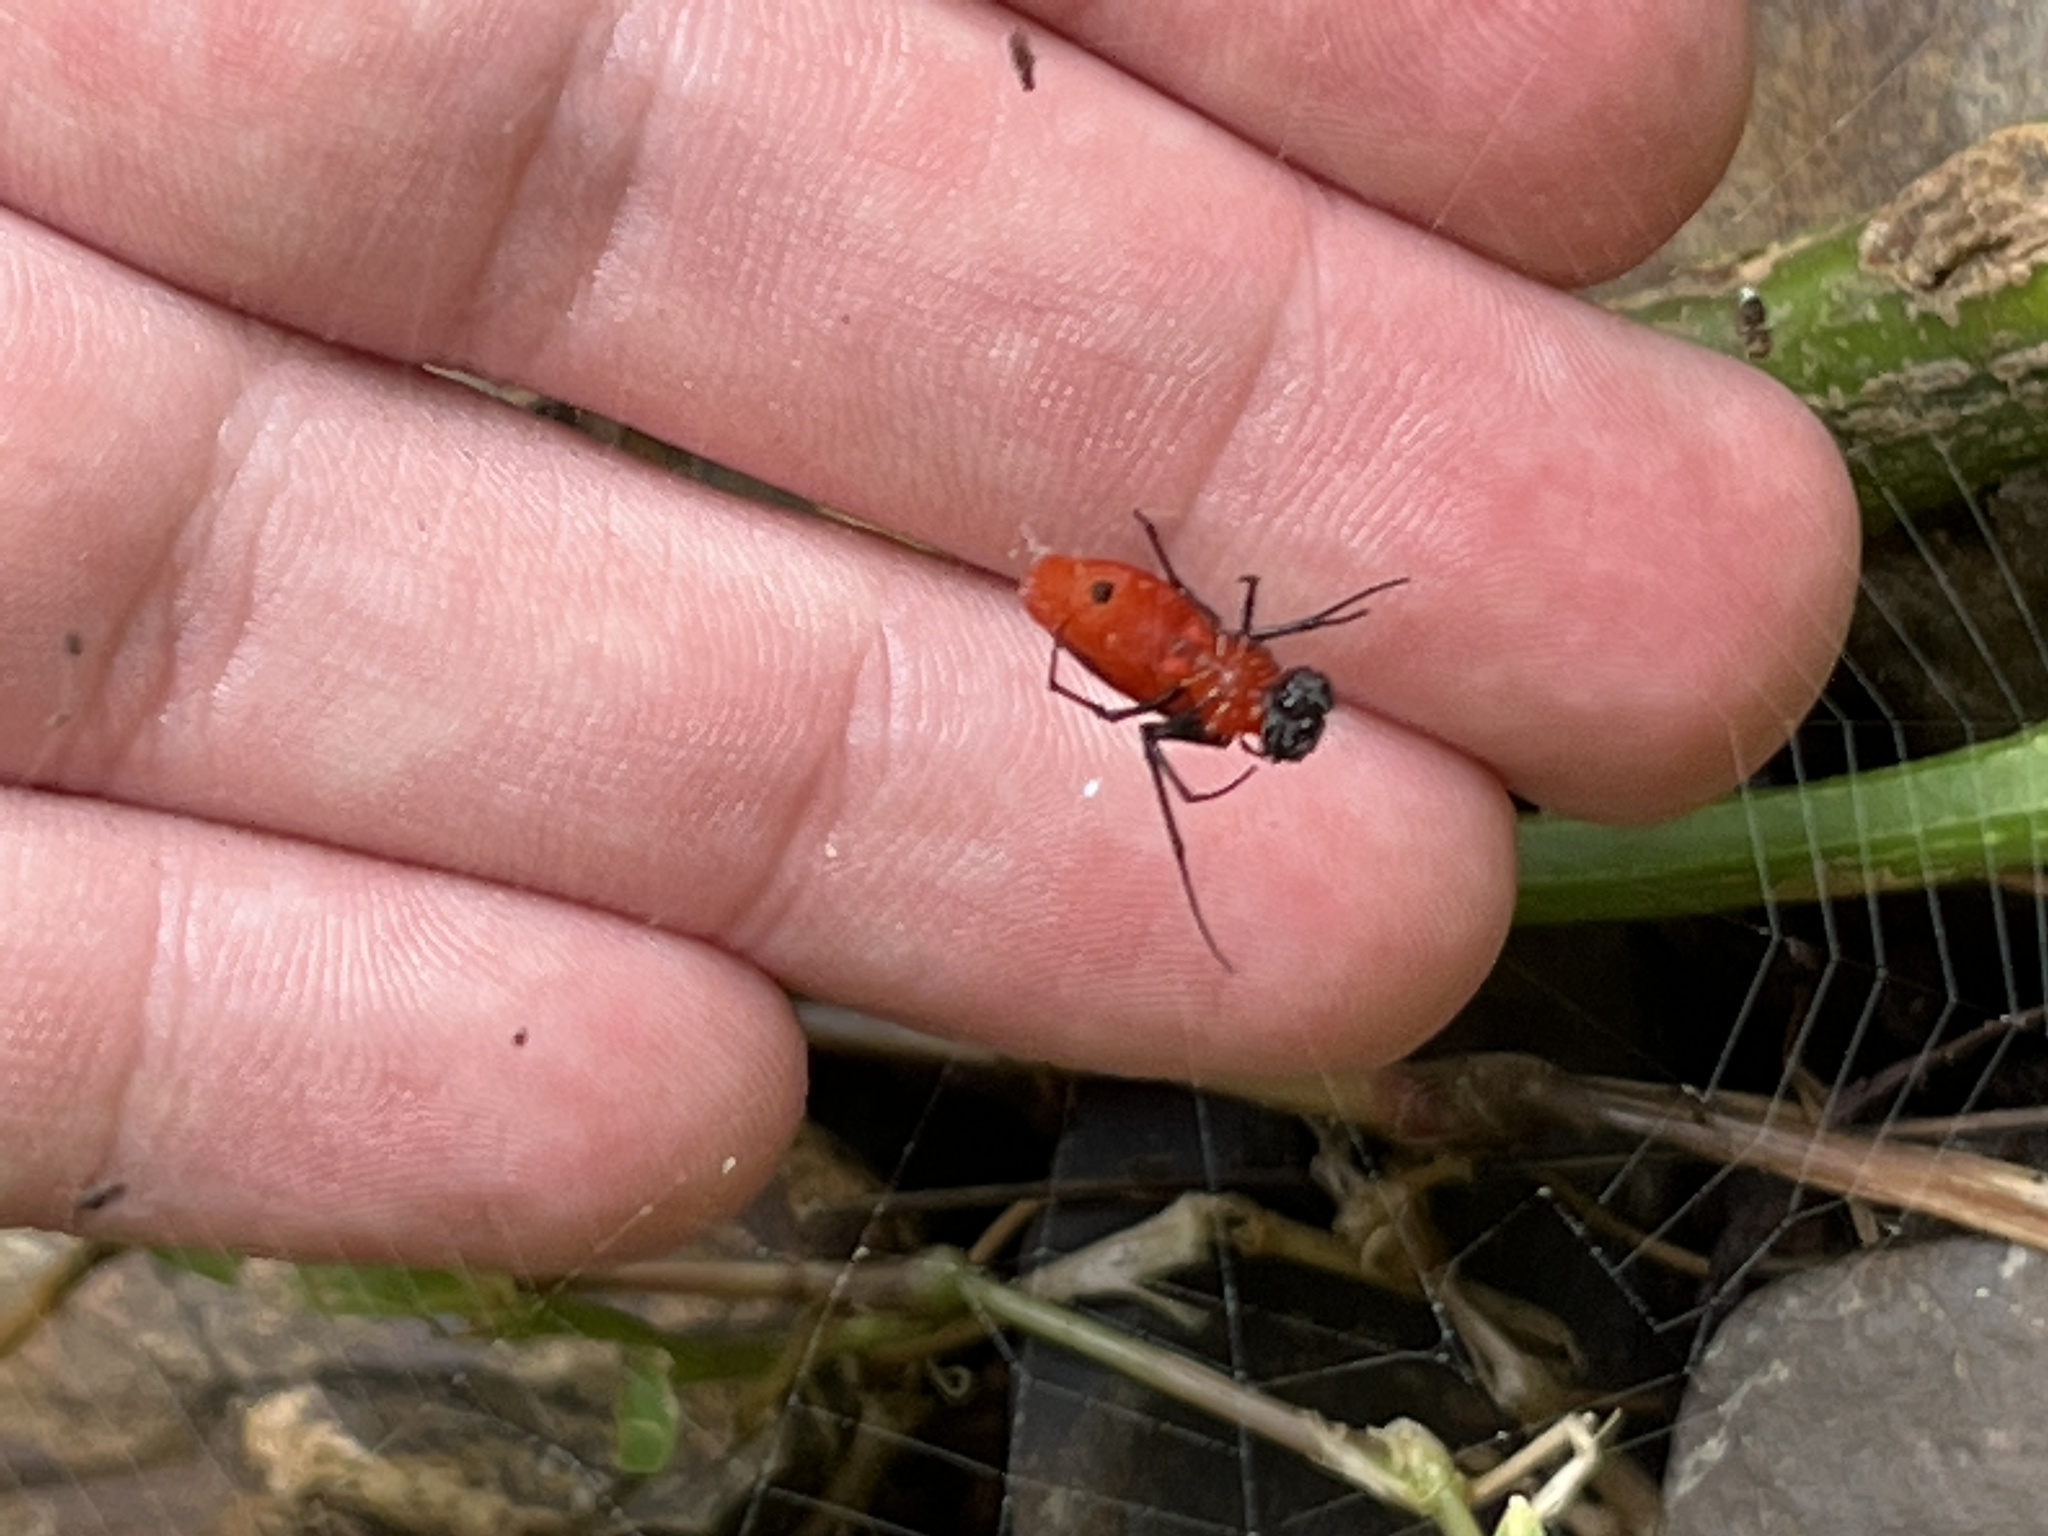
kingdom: Animalia
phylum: Arthropoda
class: Arachnida
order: Araneae
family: Tetragnathidae
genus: Leucauge
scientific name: Leucauge licina
